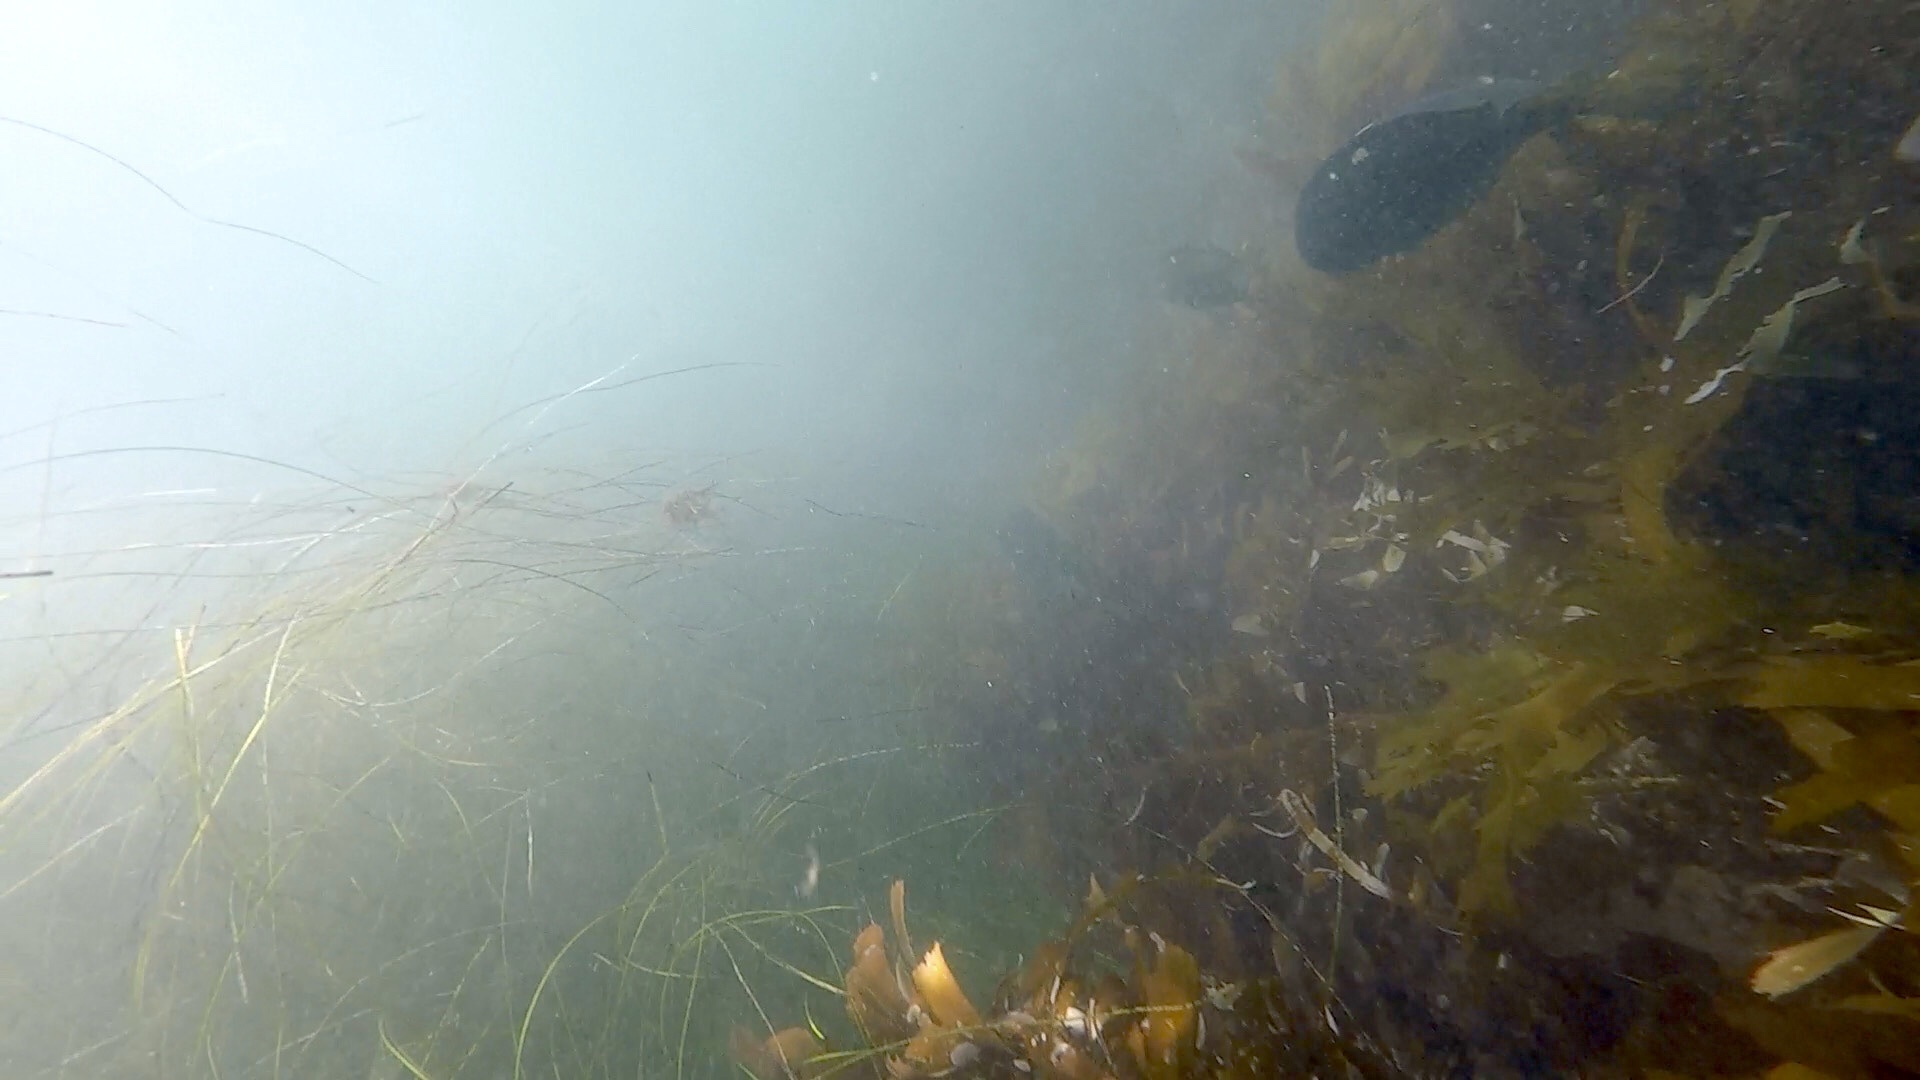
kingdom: Animalia
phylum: Chordata
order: Perciformes
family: Kyphosidae
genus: Girella
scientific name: Girella nigricans
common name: Opaleye
